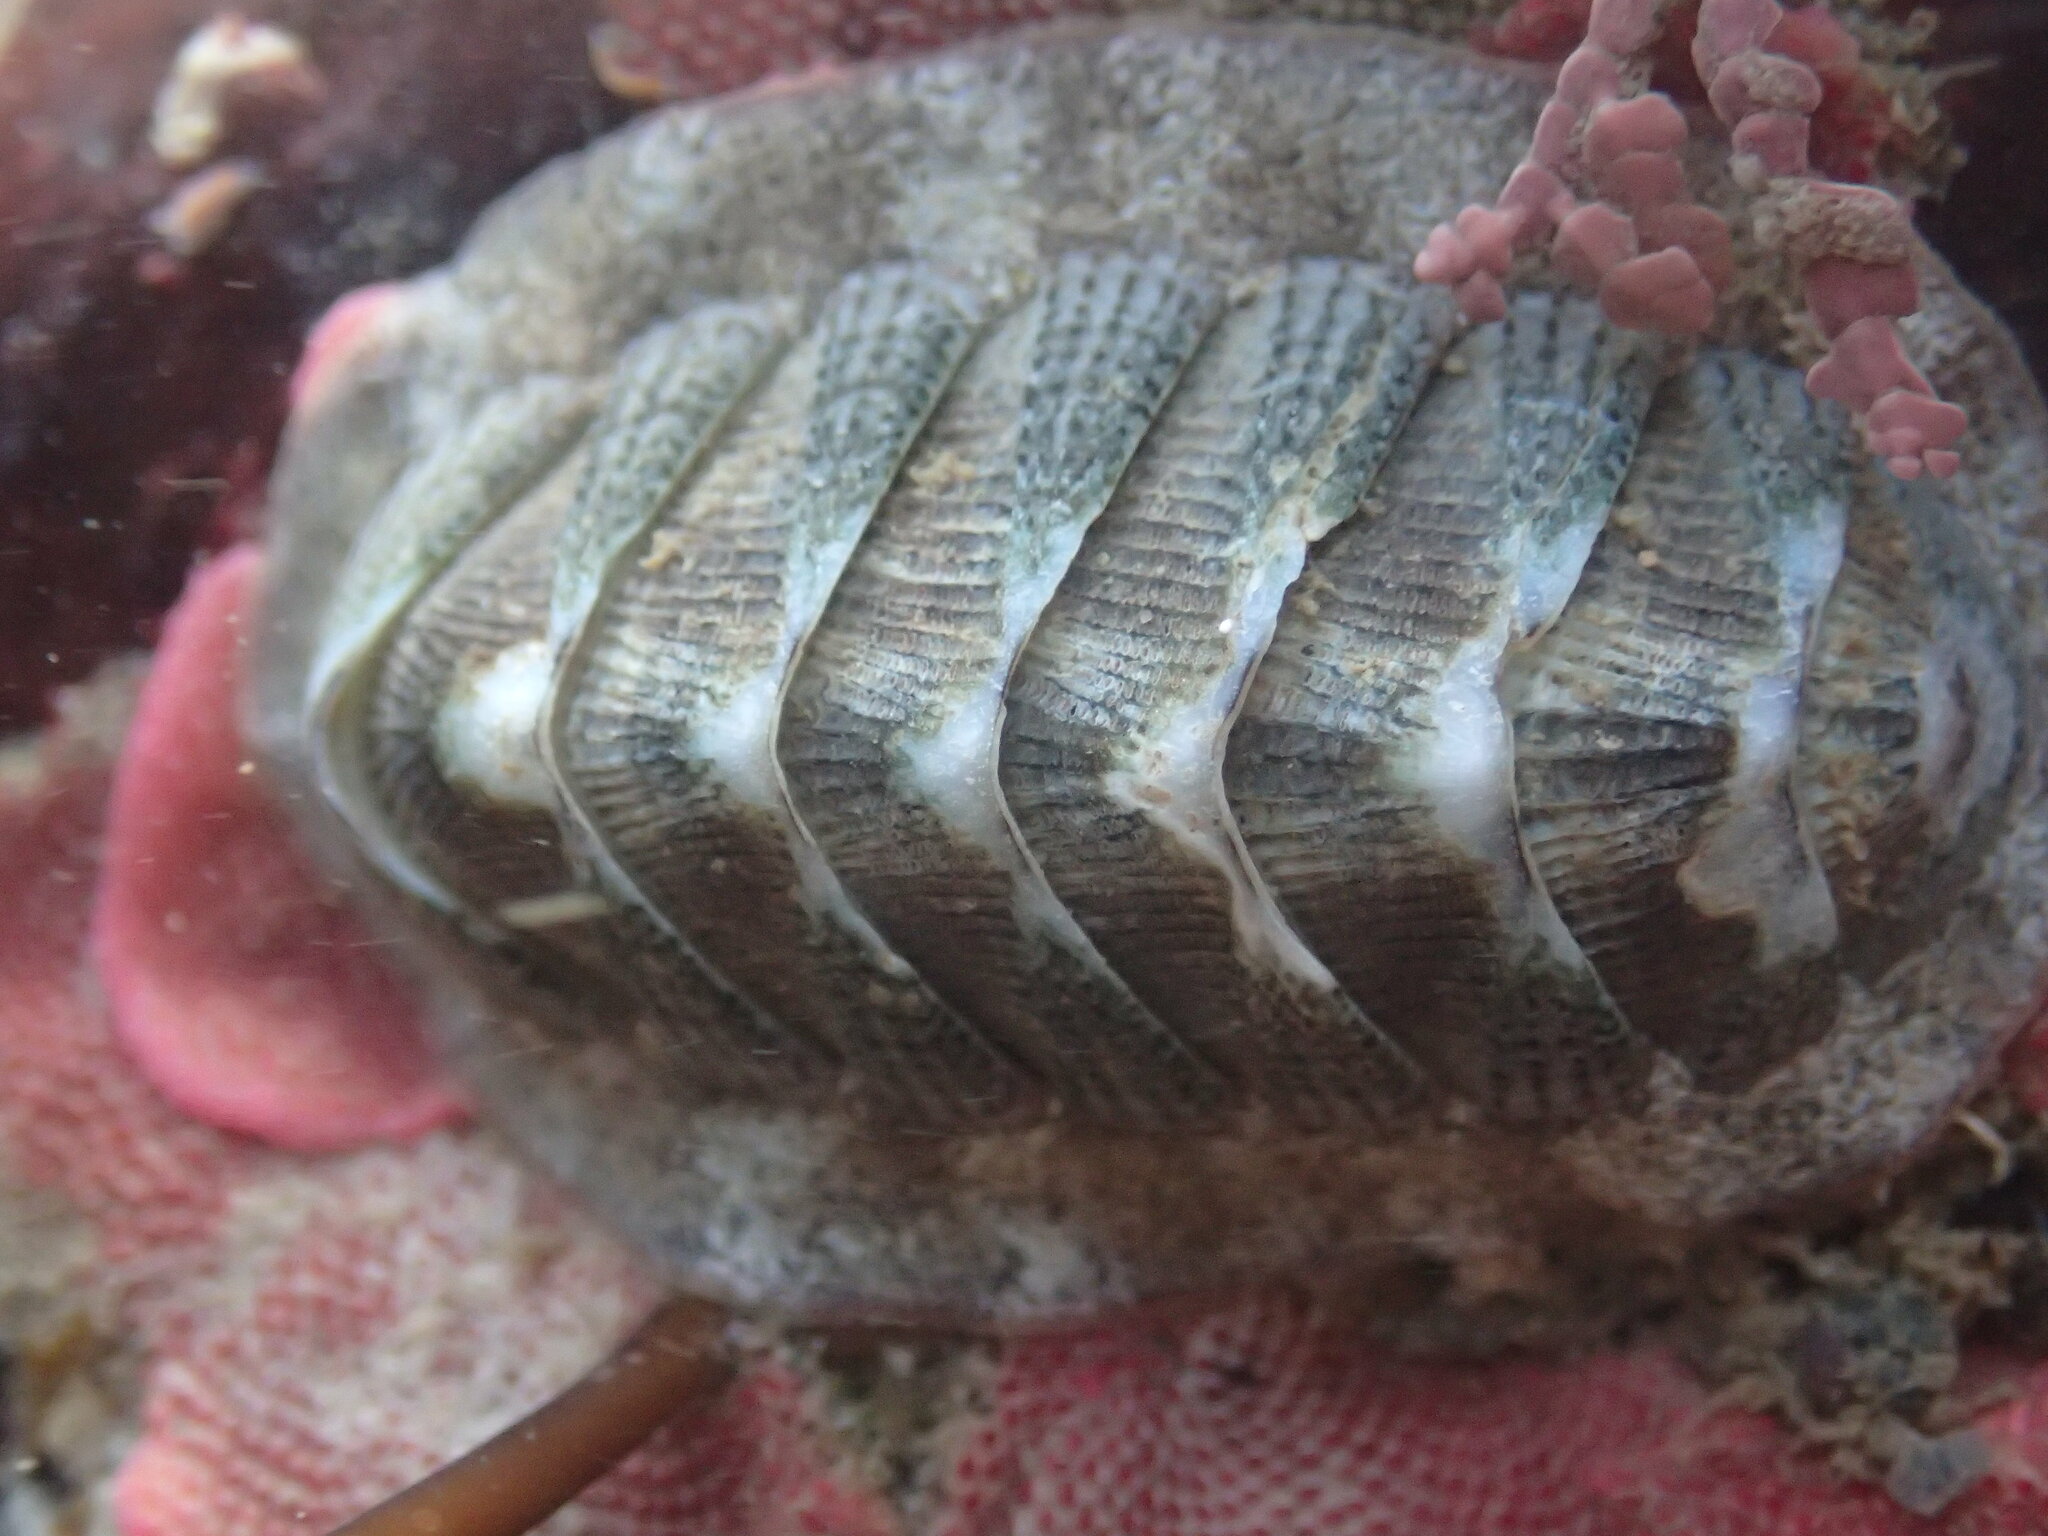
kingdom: Animalia
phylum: Mollusca
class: Polyplacophora
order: Chitonida
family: Ischnochitonidae
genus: Lepidozona
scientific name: Lepidozona cooperi
